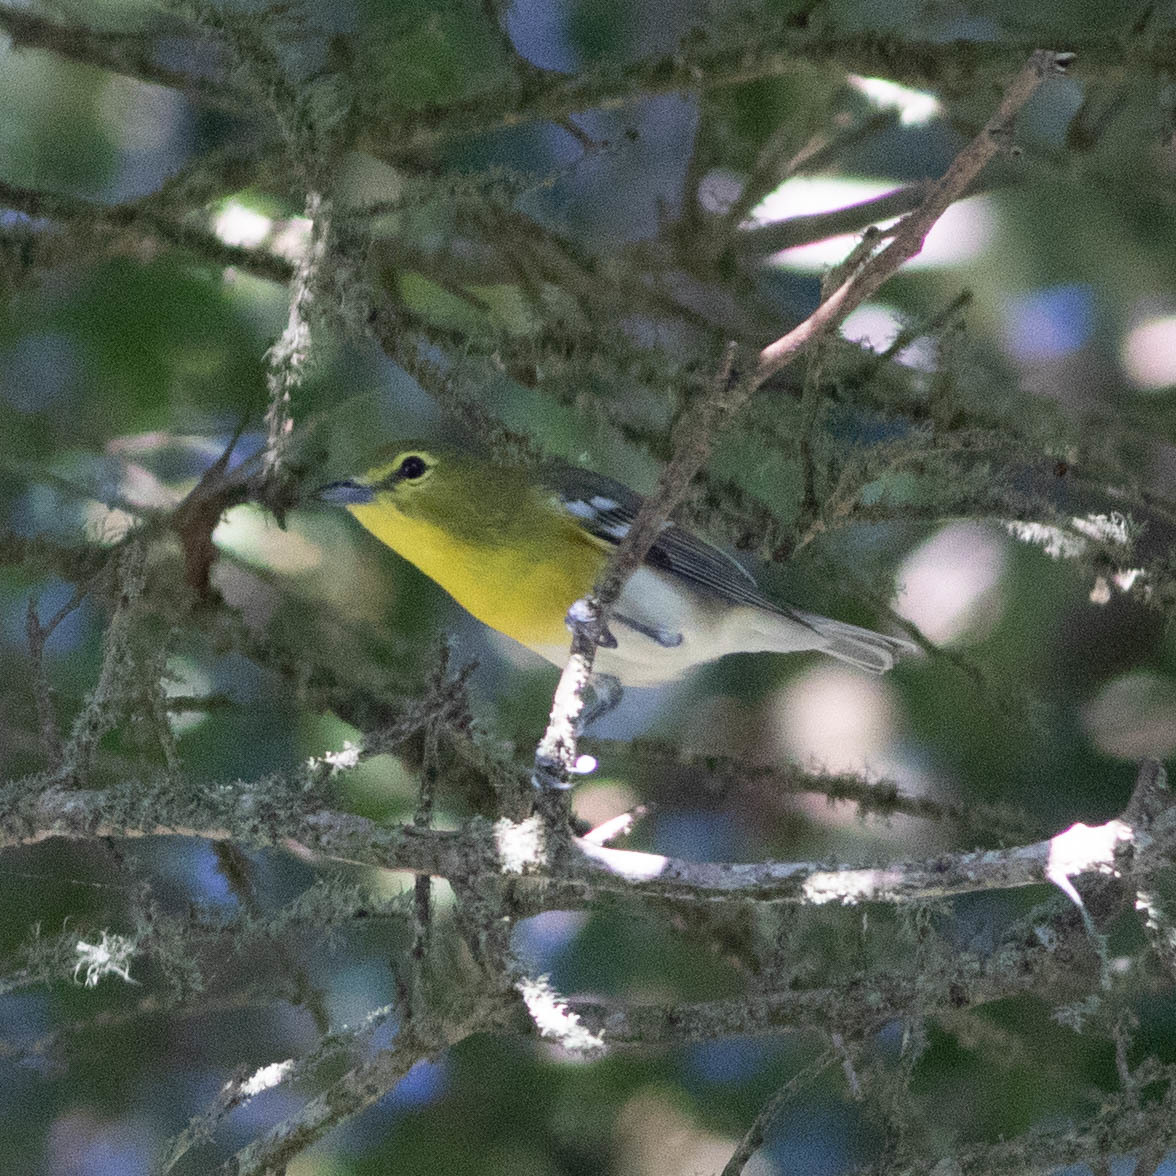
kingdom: Animalia
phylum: Chordata
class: Aves
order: Passeriformes
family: Vireonidae
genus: Vireo
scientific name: Vireo flavifrons
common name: Yellow-throated vireo
